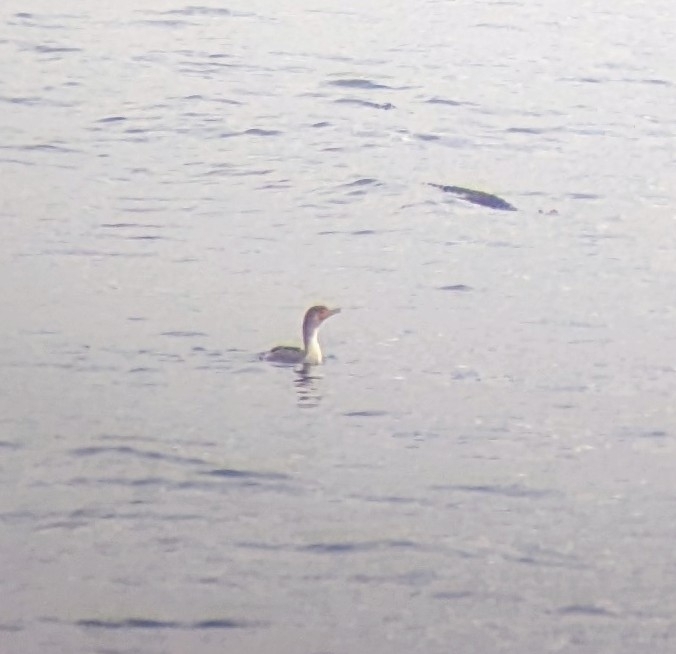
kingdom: Animalia
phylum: Chordata
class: Aves
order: Suliformes
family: Phalacrocoracidae
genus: Phalacrocorax
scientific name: Phalacrocorax auritus
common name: Double-crested cormorant
